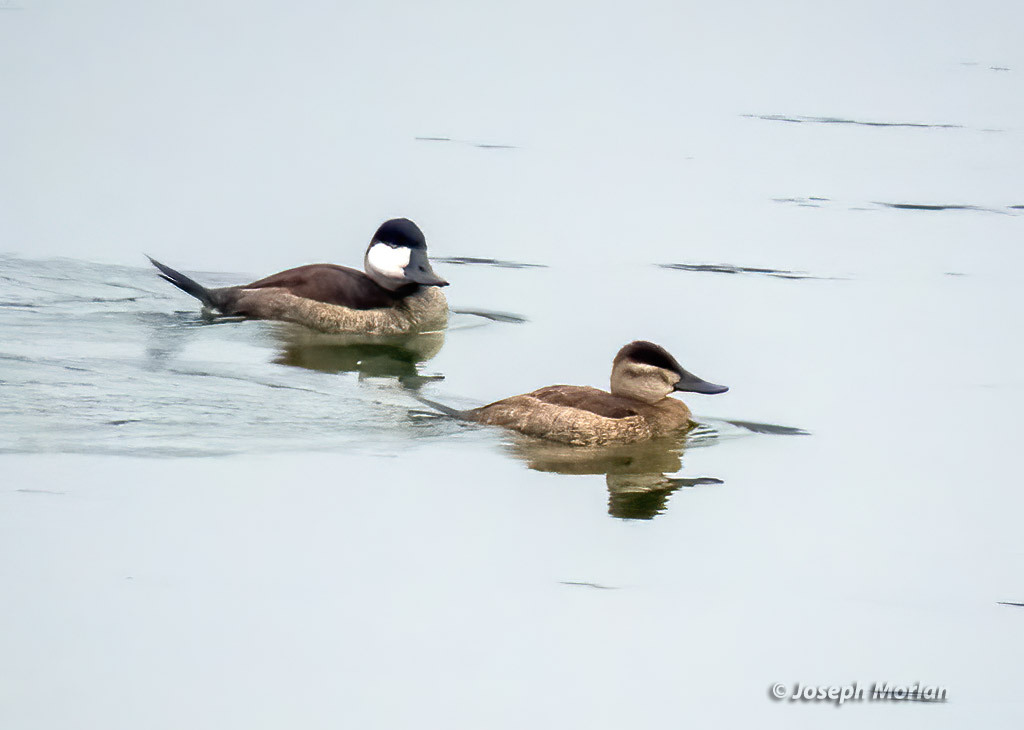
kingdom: Animalia
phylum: Chordata
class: Aves
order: Anseriformes
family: Anatidae
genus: Oxyura
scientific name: Oxyura jamaicensis
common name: Ruddy duck
